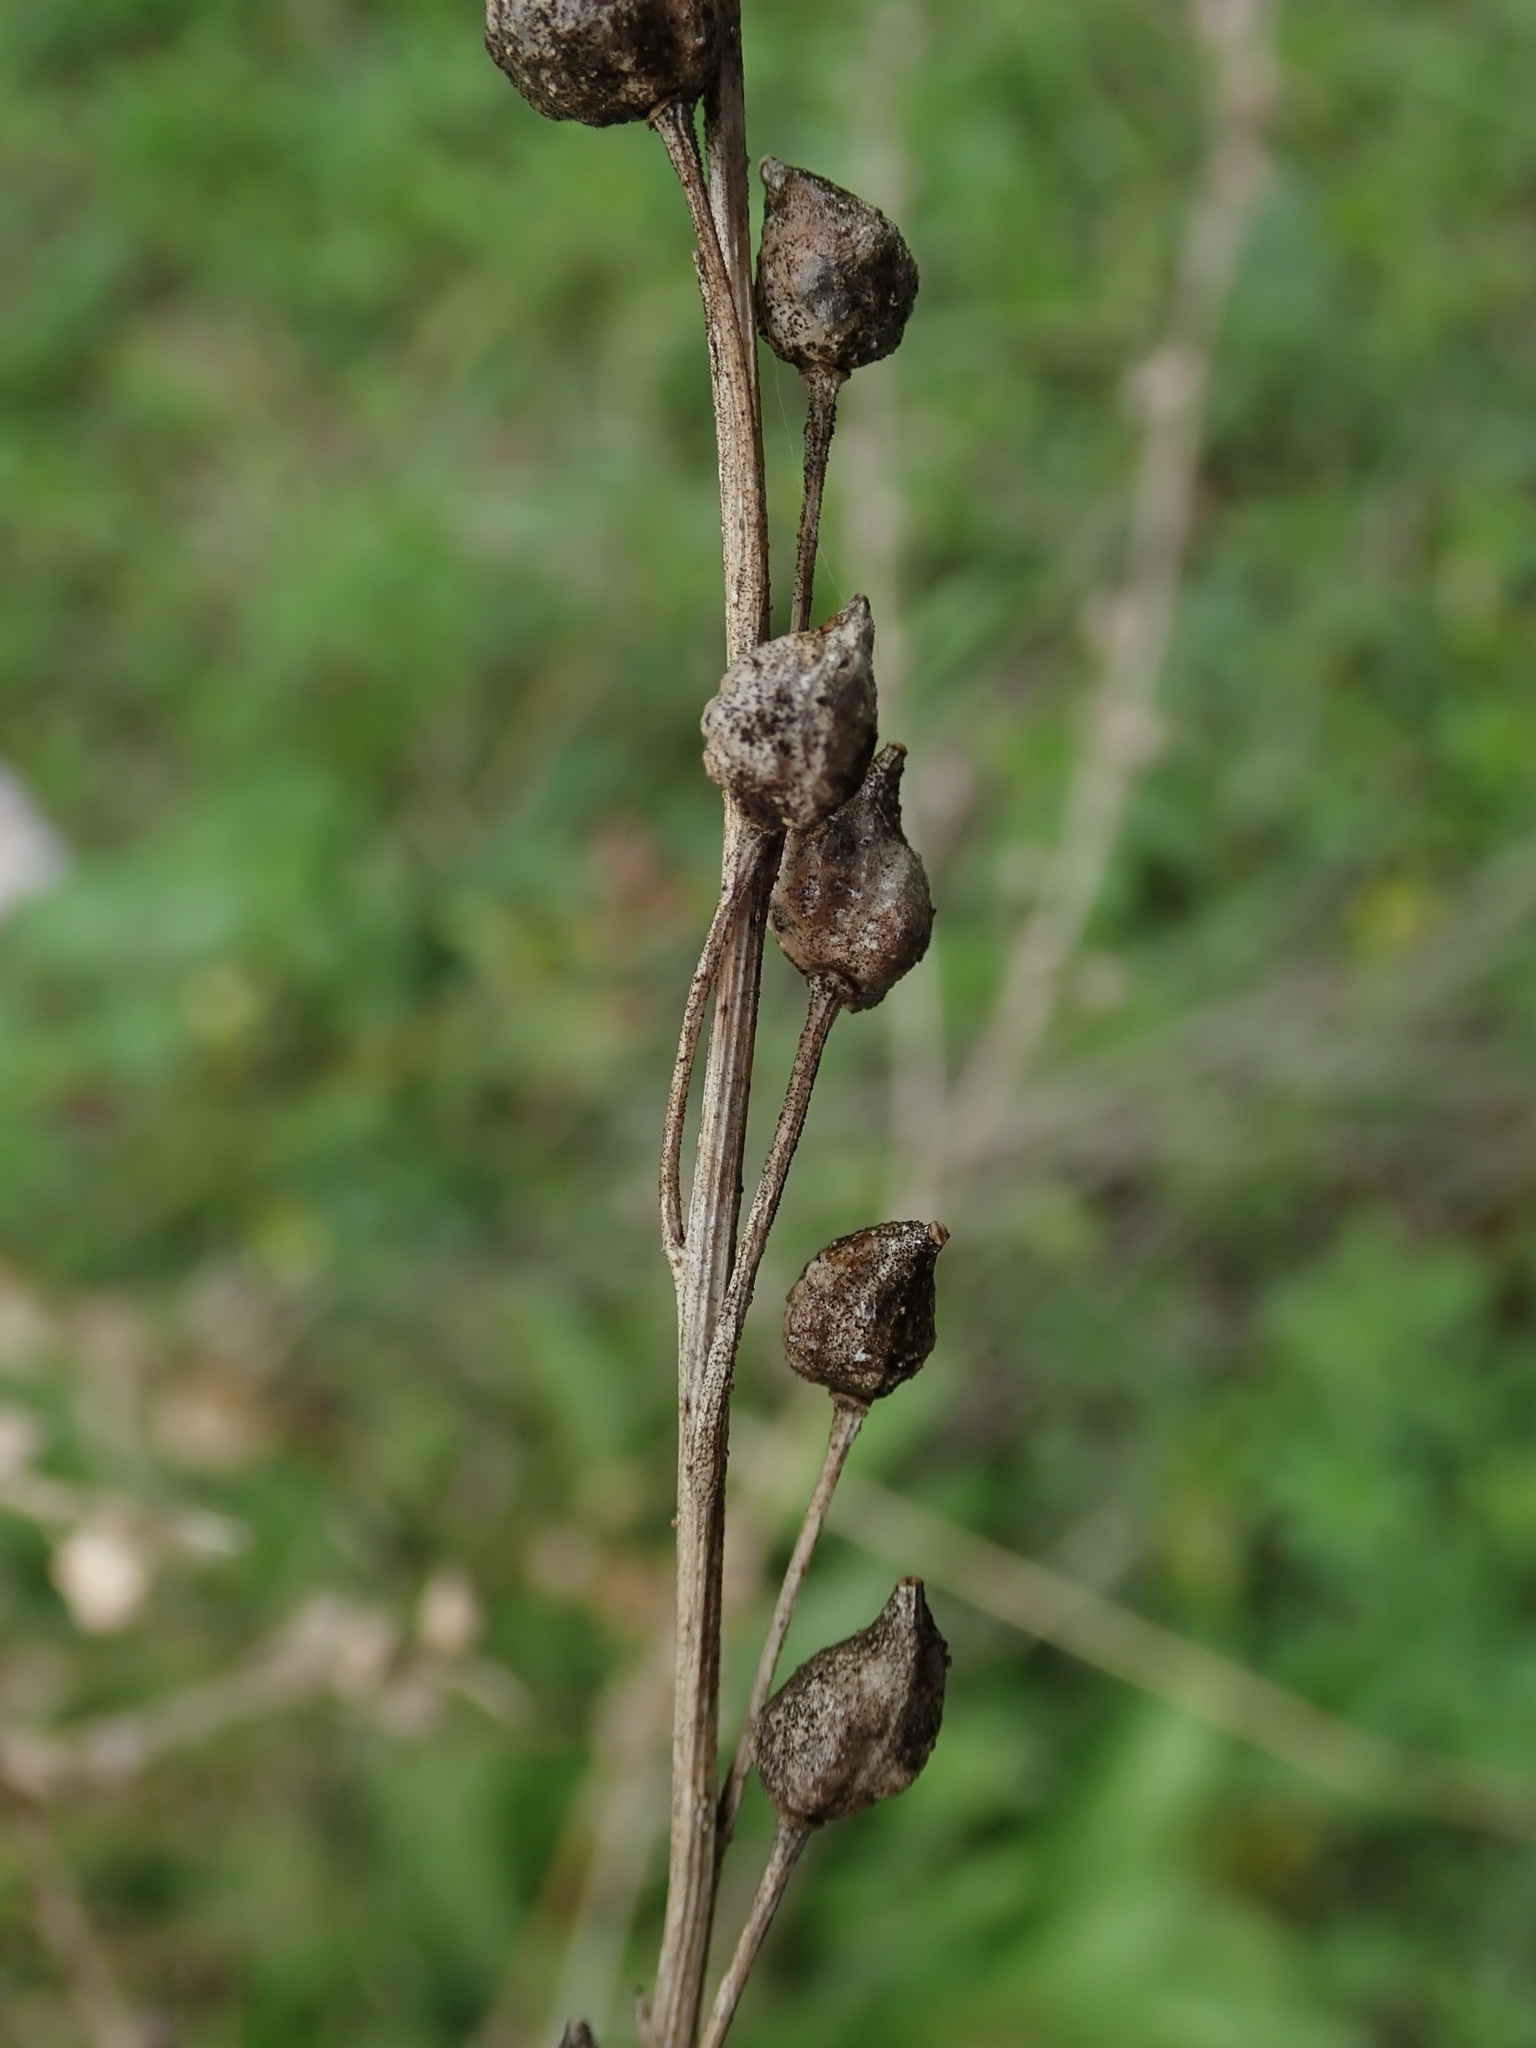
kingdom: Plantae
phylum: Tracheophyta
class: Magnoliopsida
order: Brassicales
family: Brassicaceae
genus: Bunias
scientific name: Bunias orientalis
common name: Warty-cabbage
